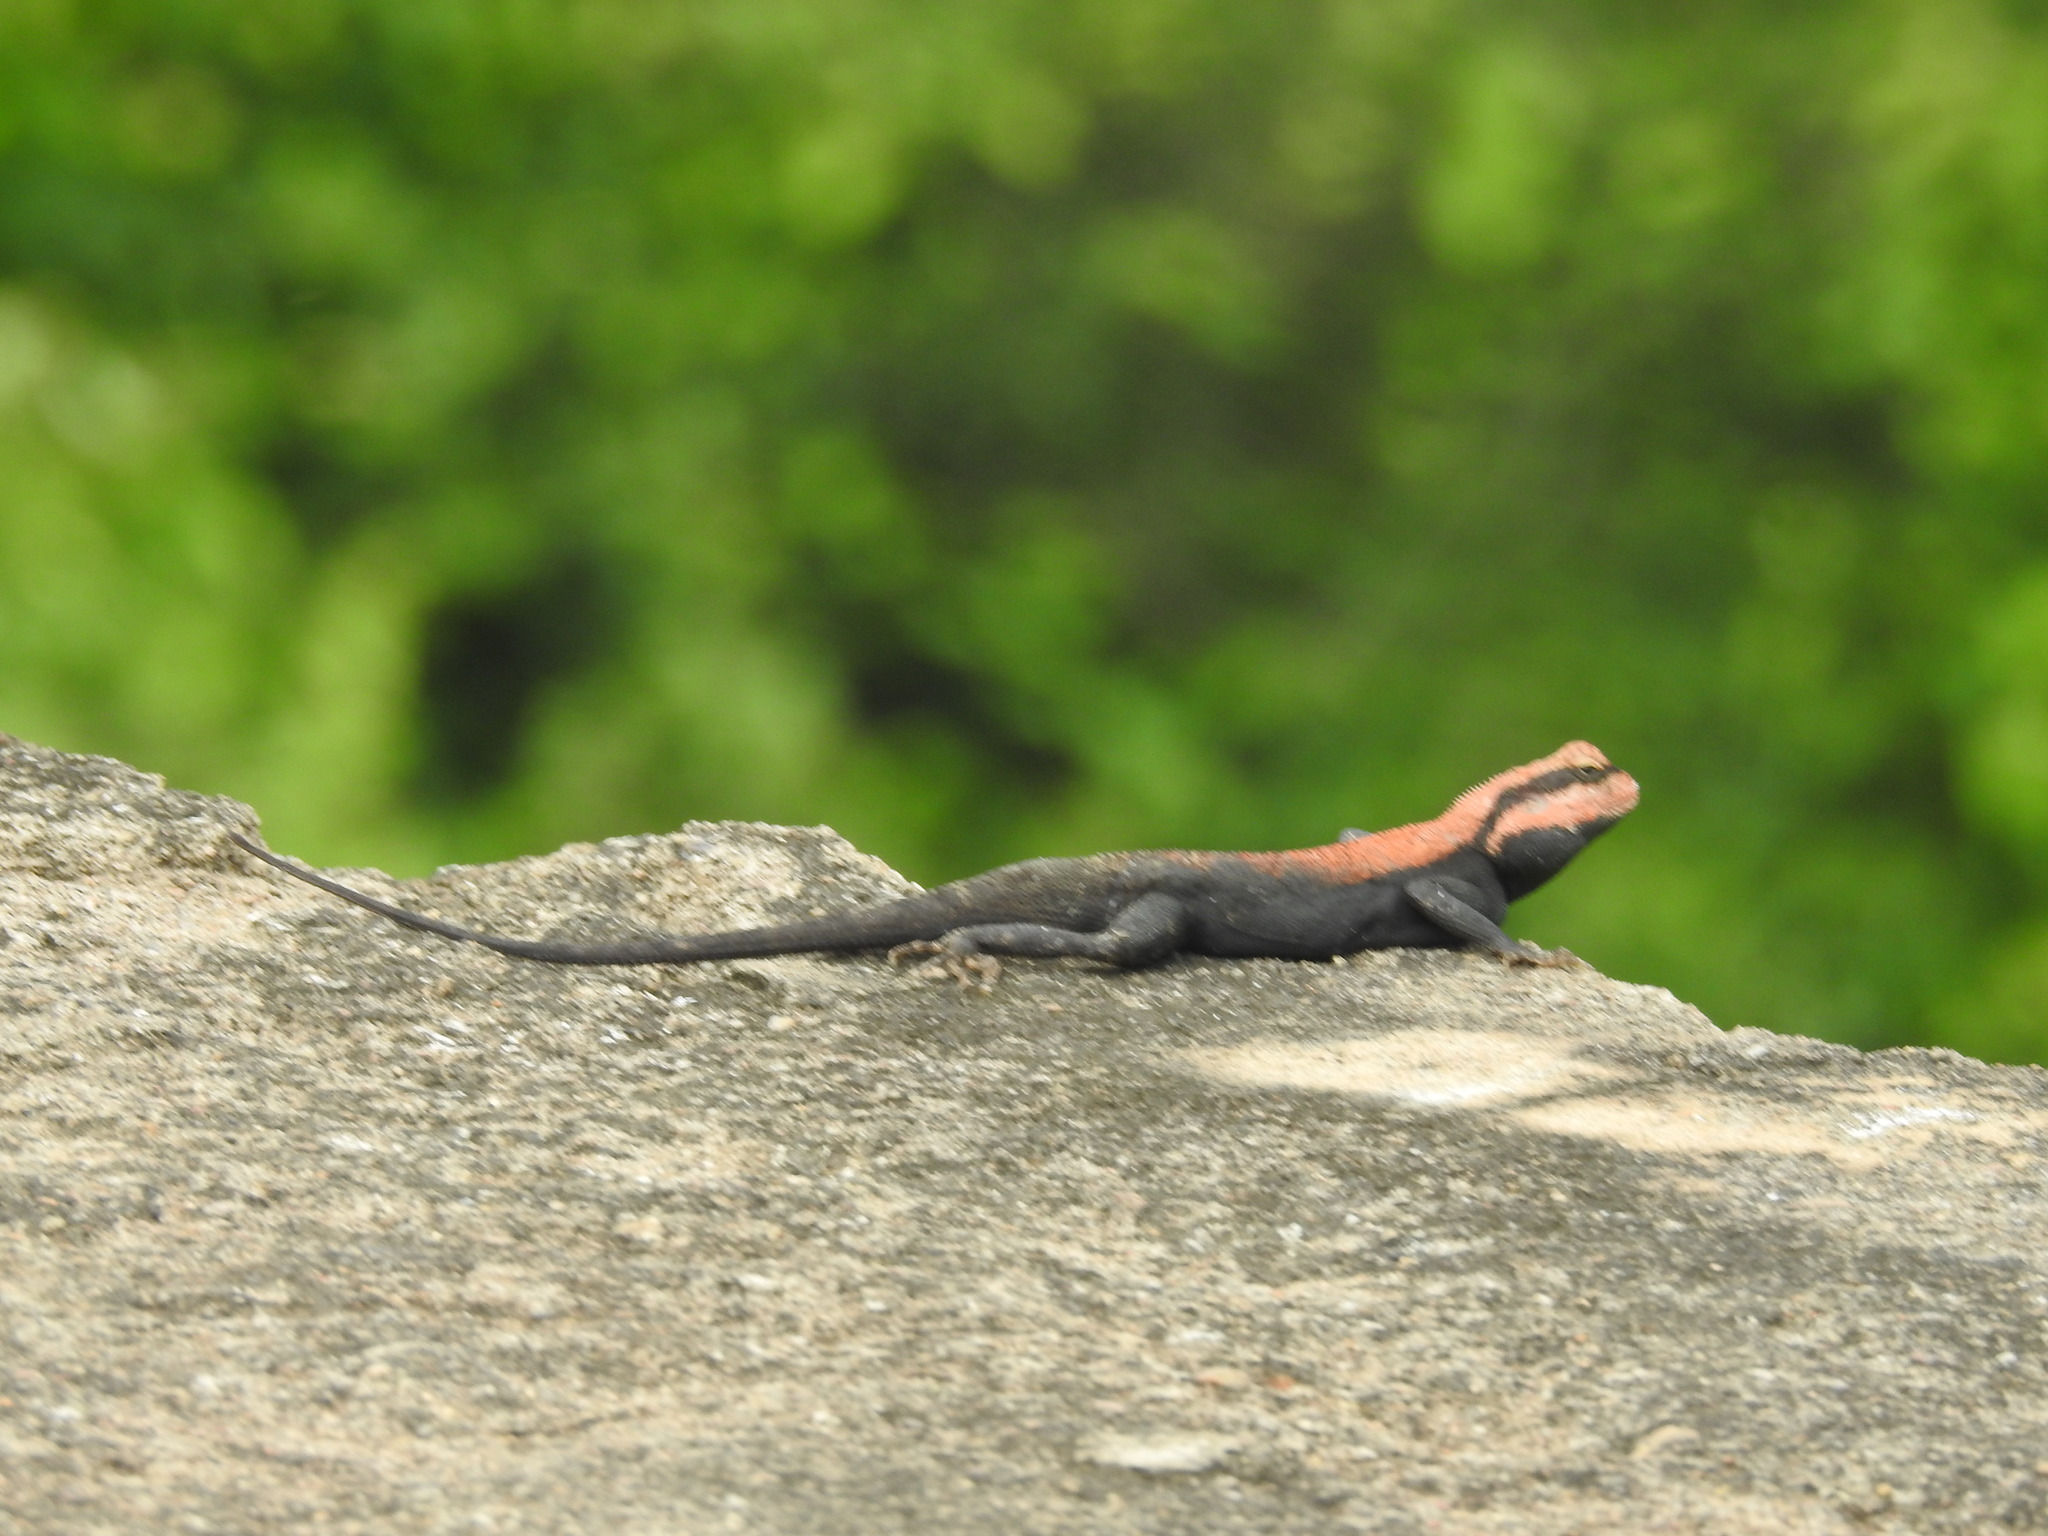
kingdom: Animalia
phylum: Chordata
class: Squamata
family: Agamidae
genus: Psammophilus
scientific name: Psammophilus dorsalis
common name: South indian rock agama
